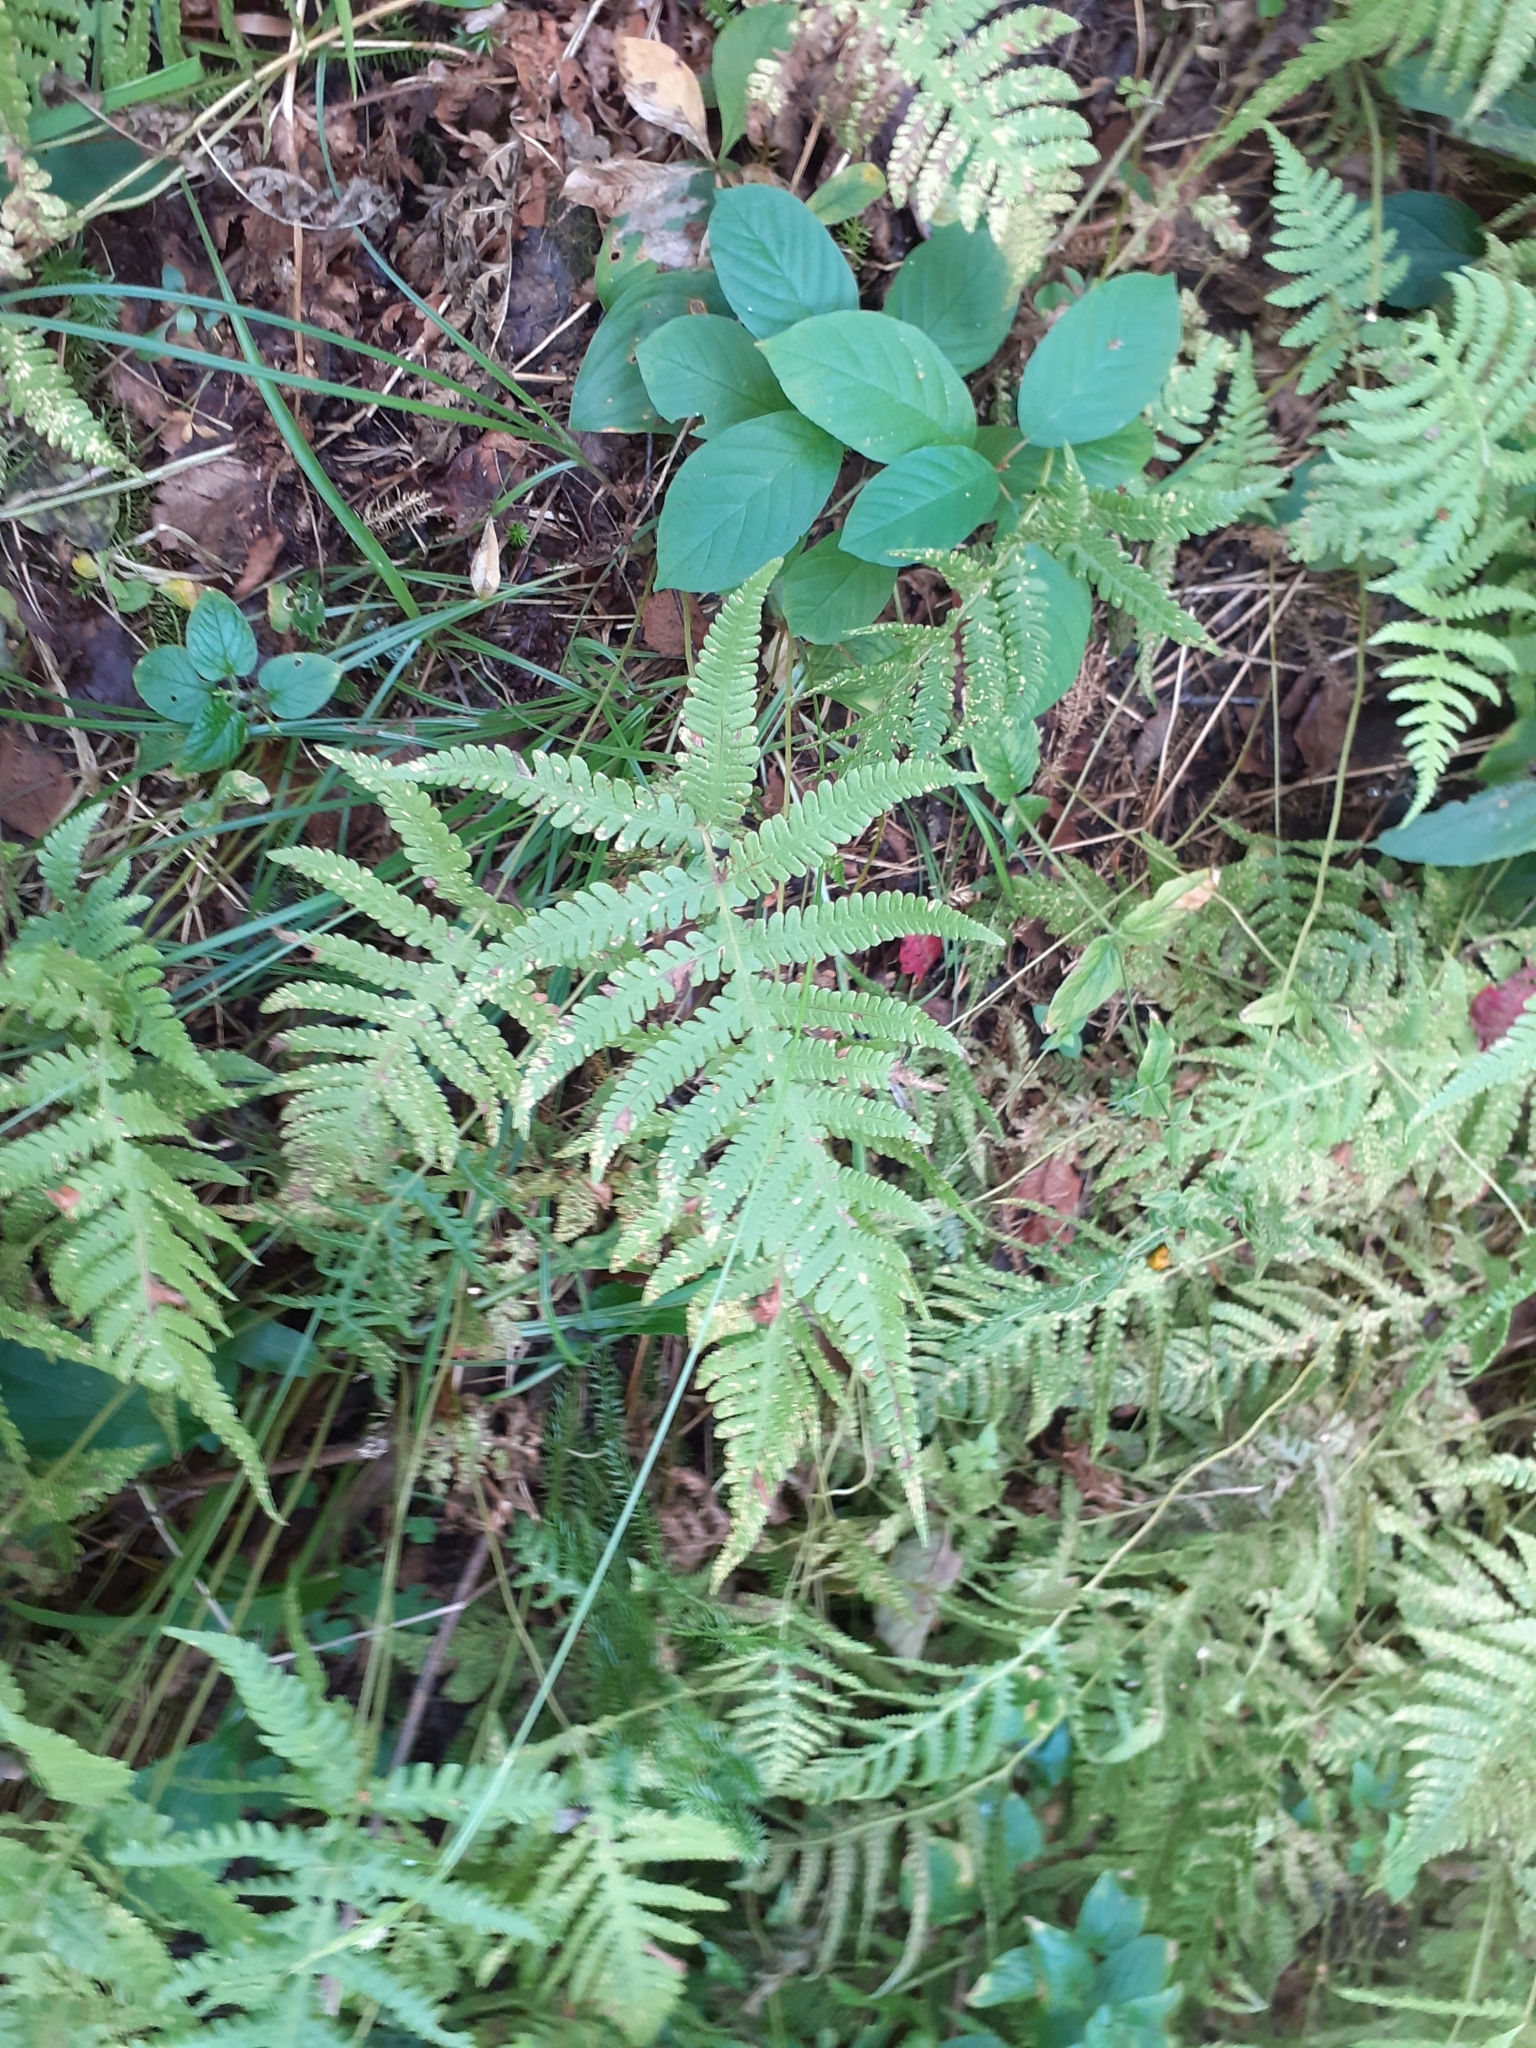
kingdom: Plantae
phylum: Tracheophyta
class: Polypodiopsida
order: Polypodiales
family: Thelypteridaceae
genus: Phegopteris
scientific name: Phegopteris connectilis
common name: Beech fern
